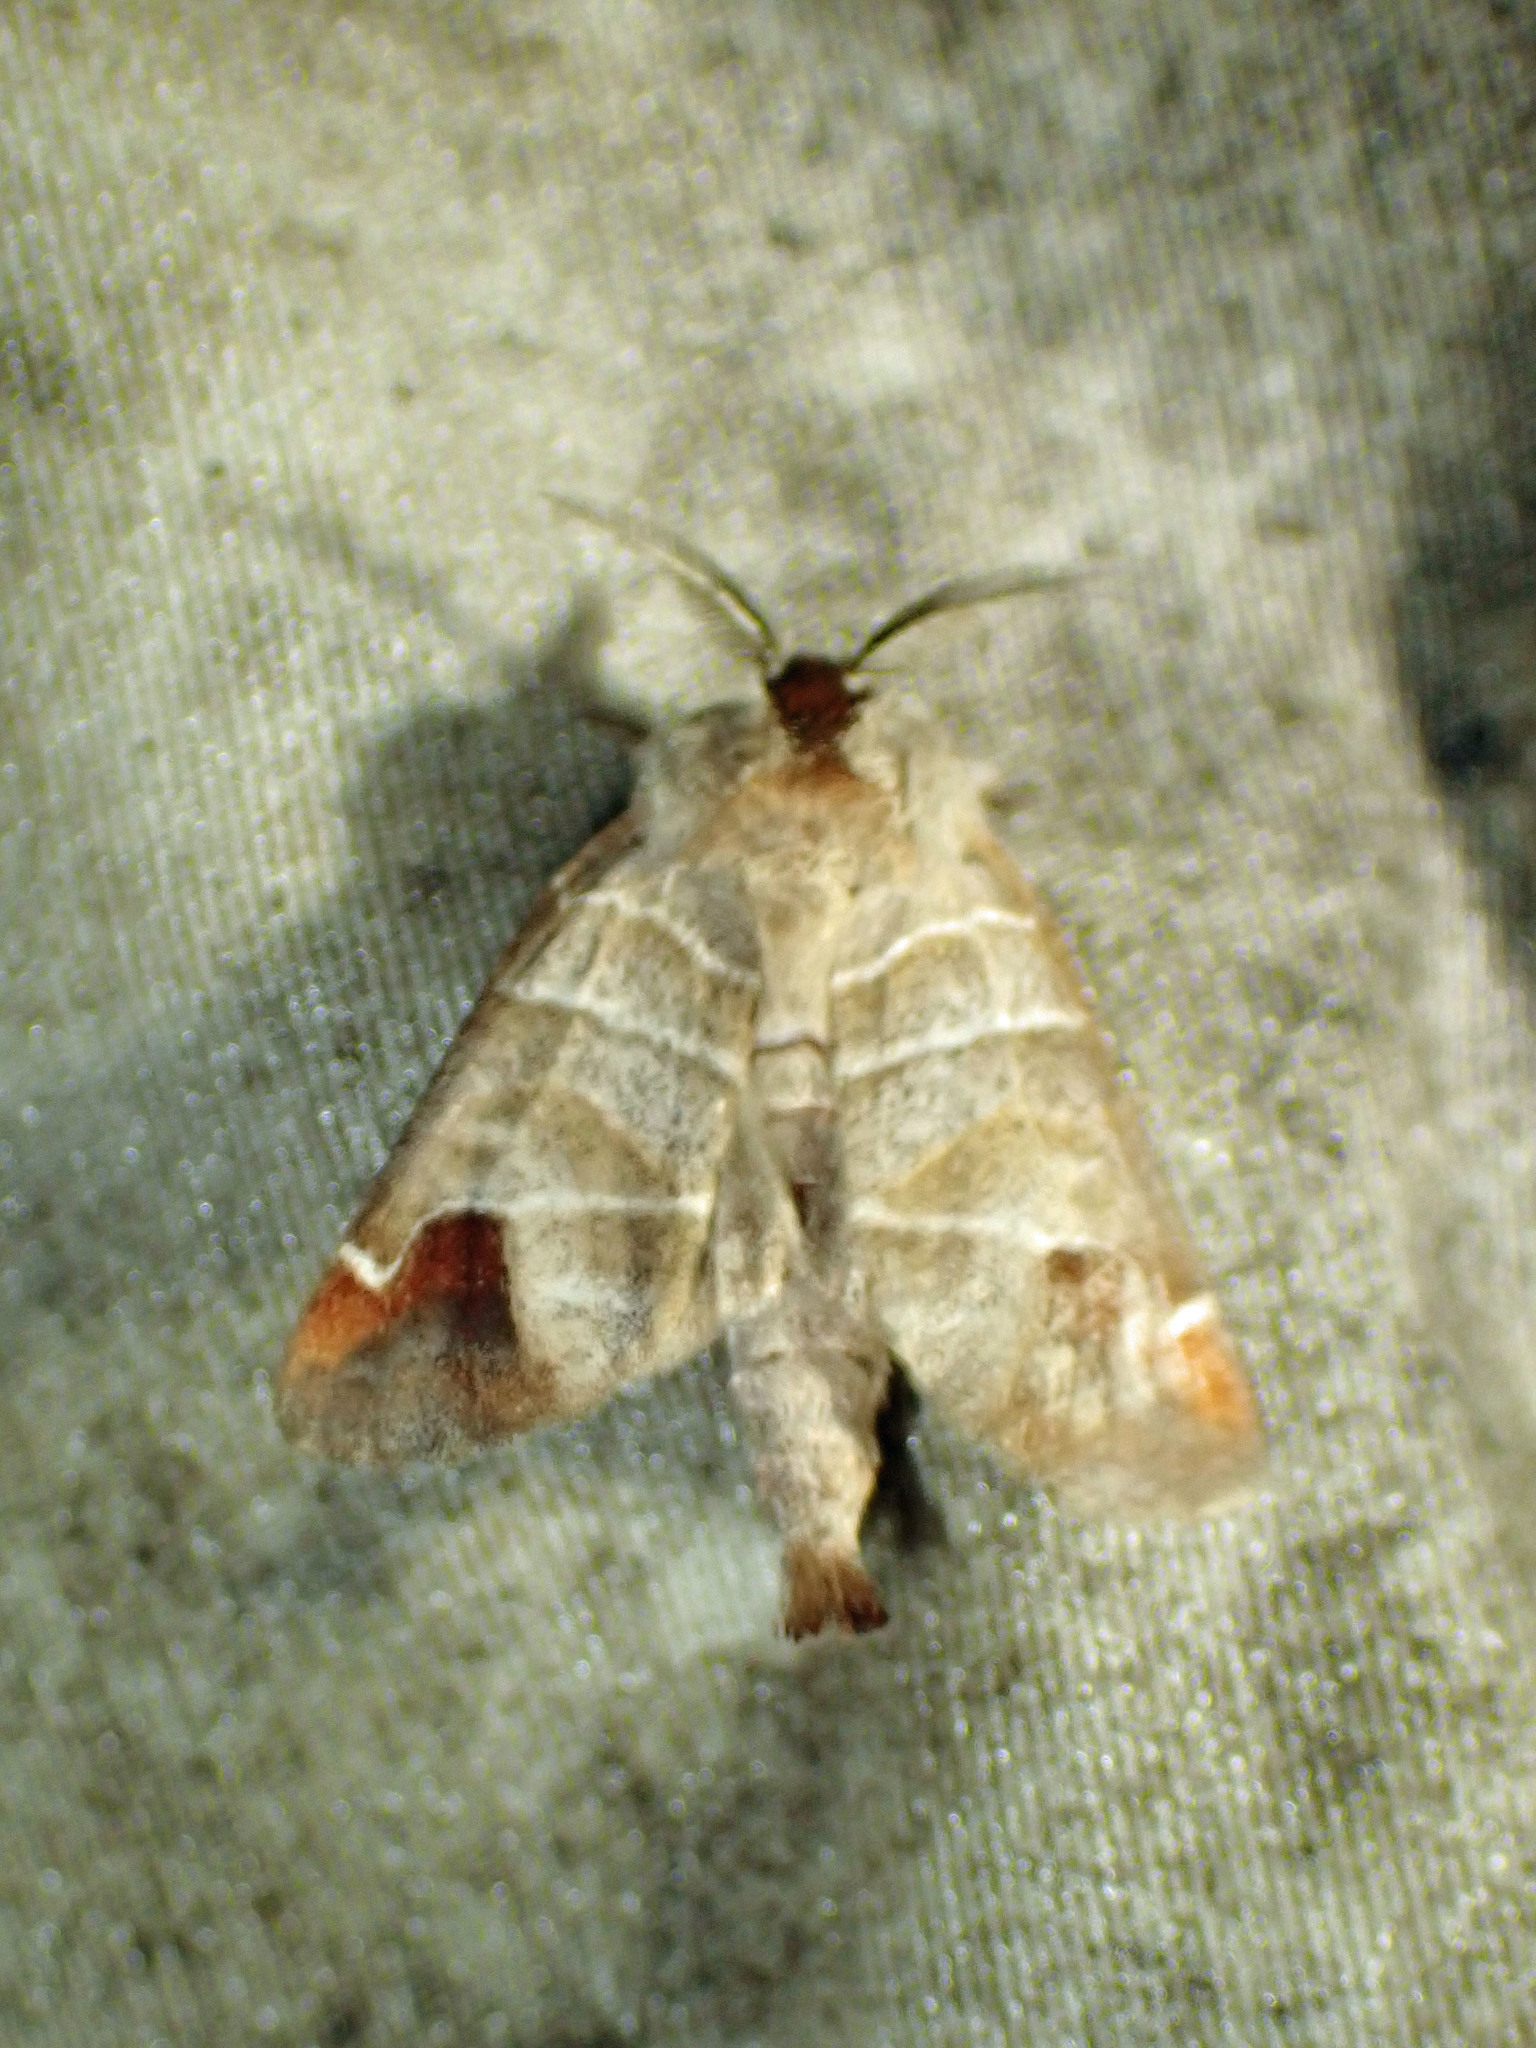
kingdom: Animalia
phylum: Arthropoda
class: Insecta
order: Lepidoptera
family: Notodontidae
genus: Clostera
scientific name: Clostera albosigma
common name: Sigmoid prominent
